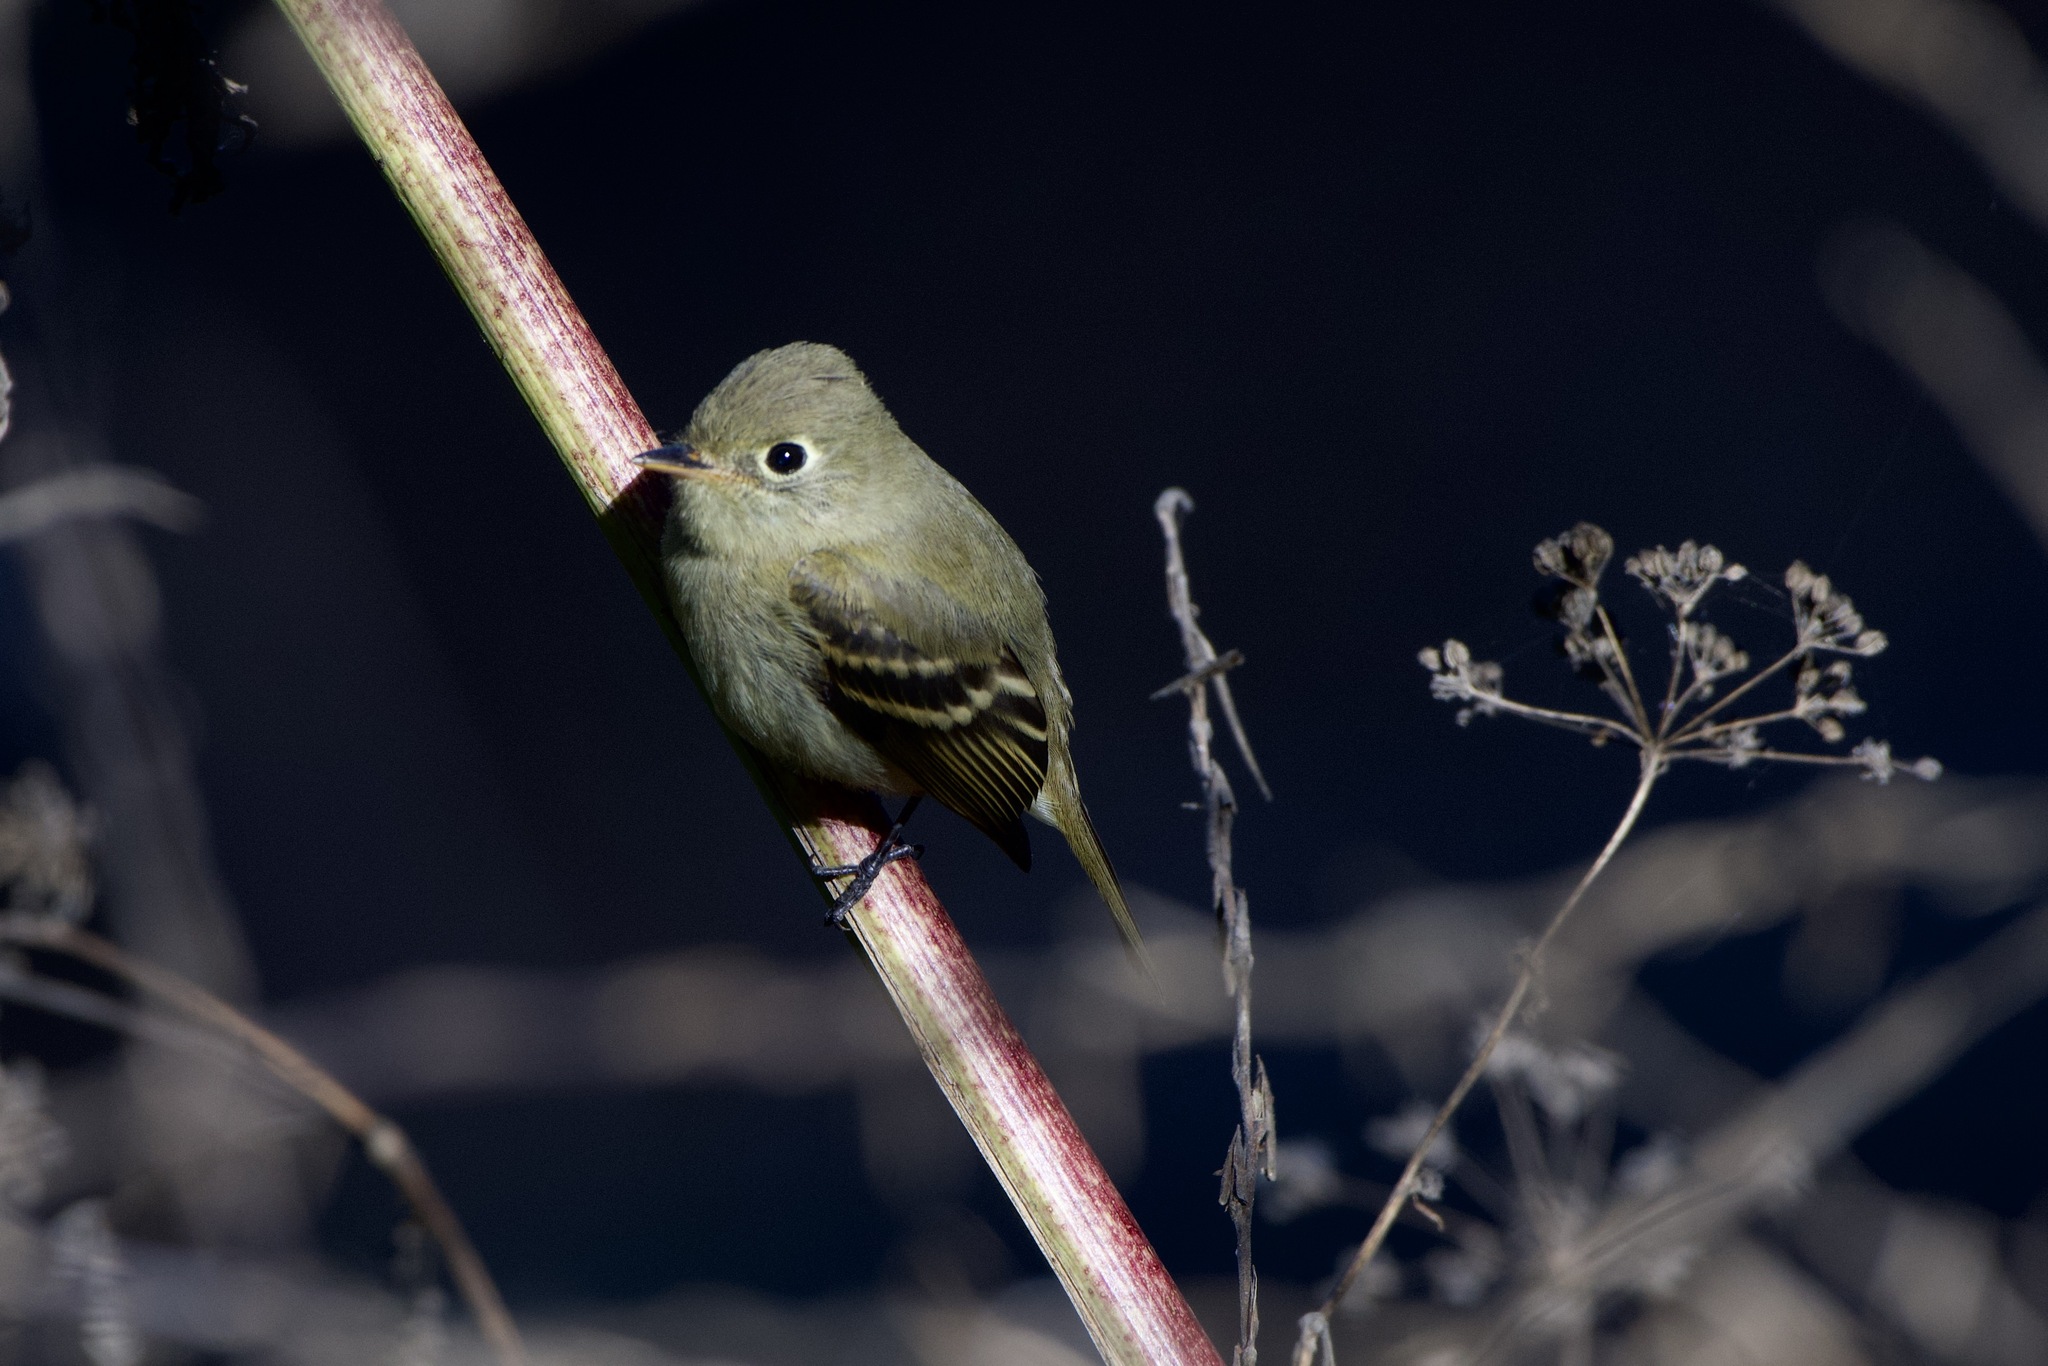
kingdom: Animalia
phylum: Chordata
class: Aves
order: Passeriformes
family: Tyrannidae
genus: Empidonax
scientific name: Empidonax difficilis
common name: Pacific-slope flycatcher
